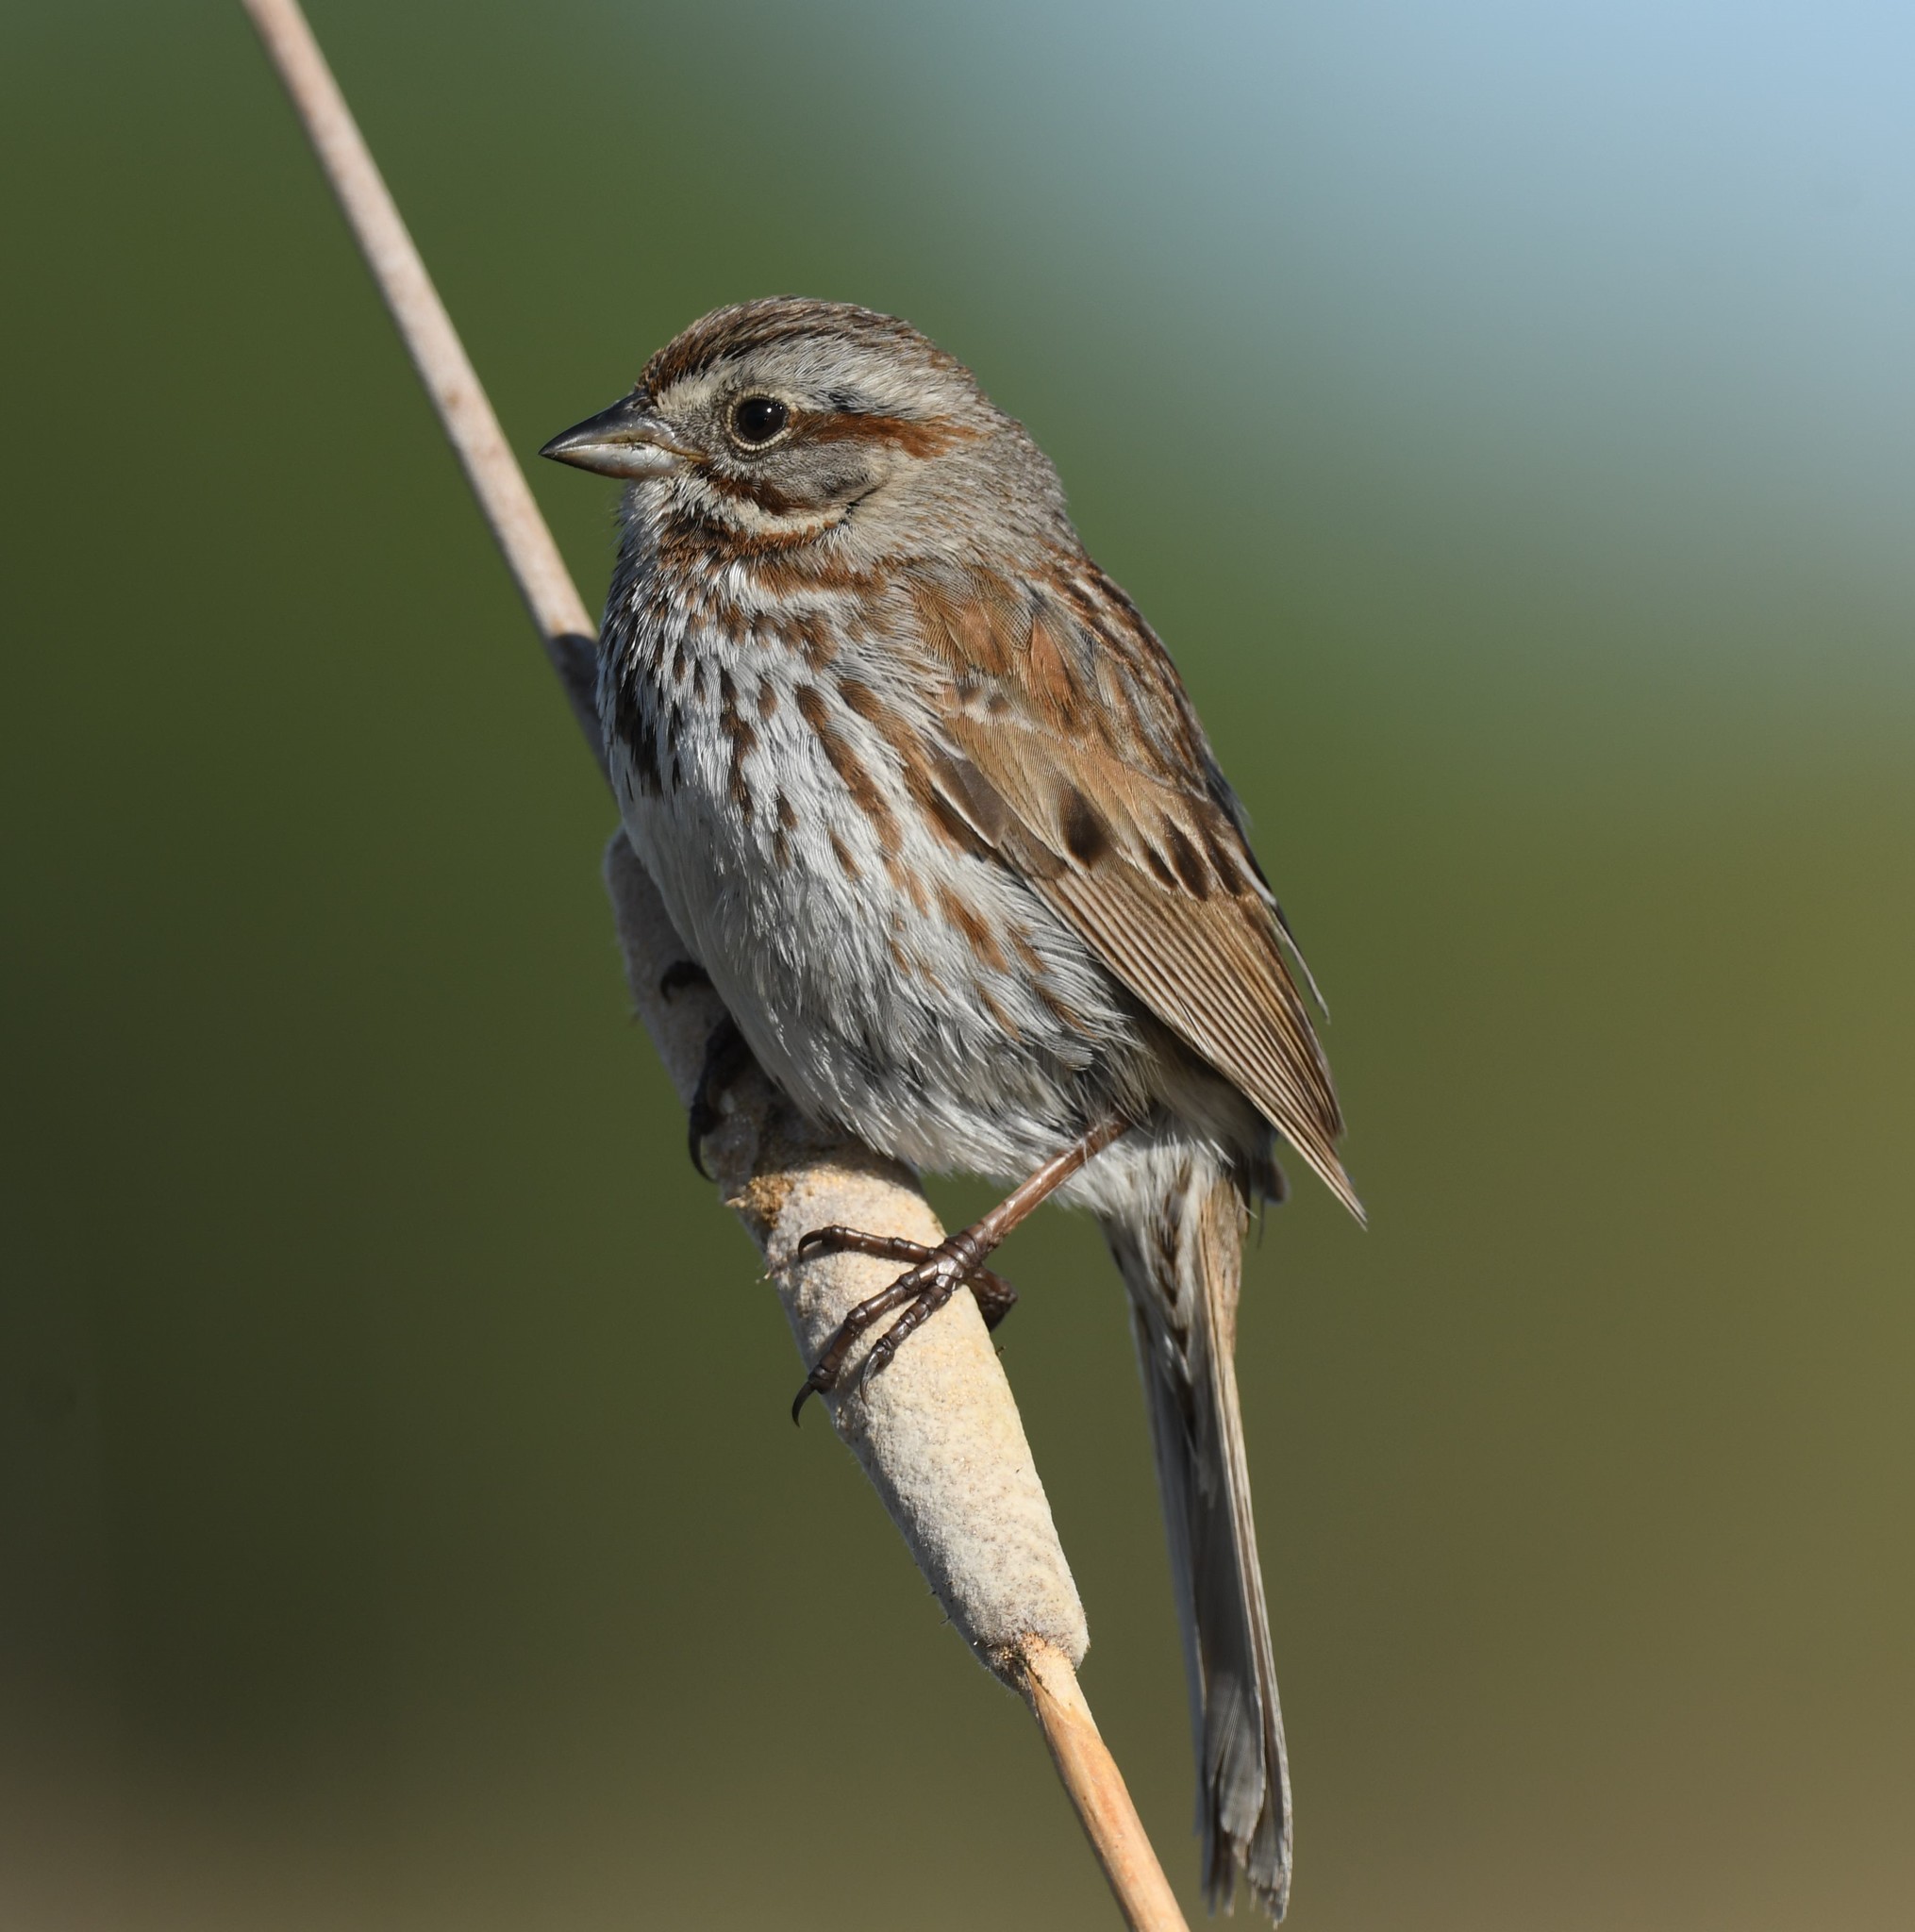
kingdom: Animalia
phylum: Chordata
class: Aves
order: Passeriformes
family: Passerellidae
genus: Melospiza
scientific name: Melospiza melodia
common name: Song sparrow
